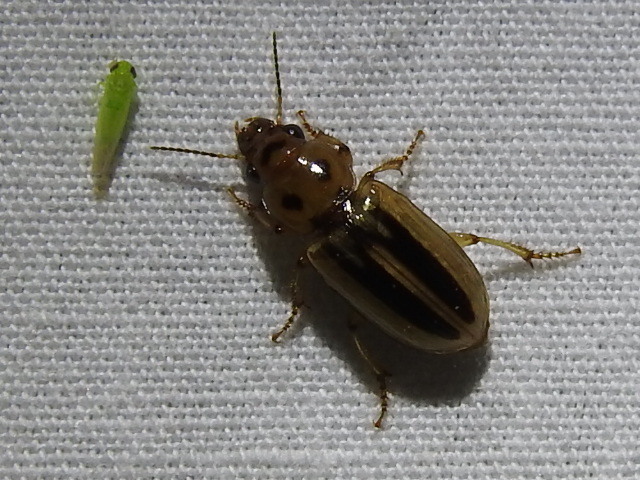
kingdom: Animalia
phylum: Arthropoda
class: Insecta
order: Coleoptera
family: Carabidae
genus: Stenolophus
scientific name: Stenolophus lineola
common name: Lined stenolophus
